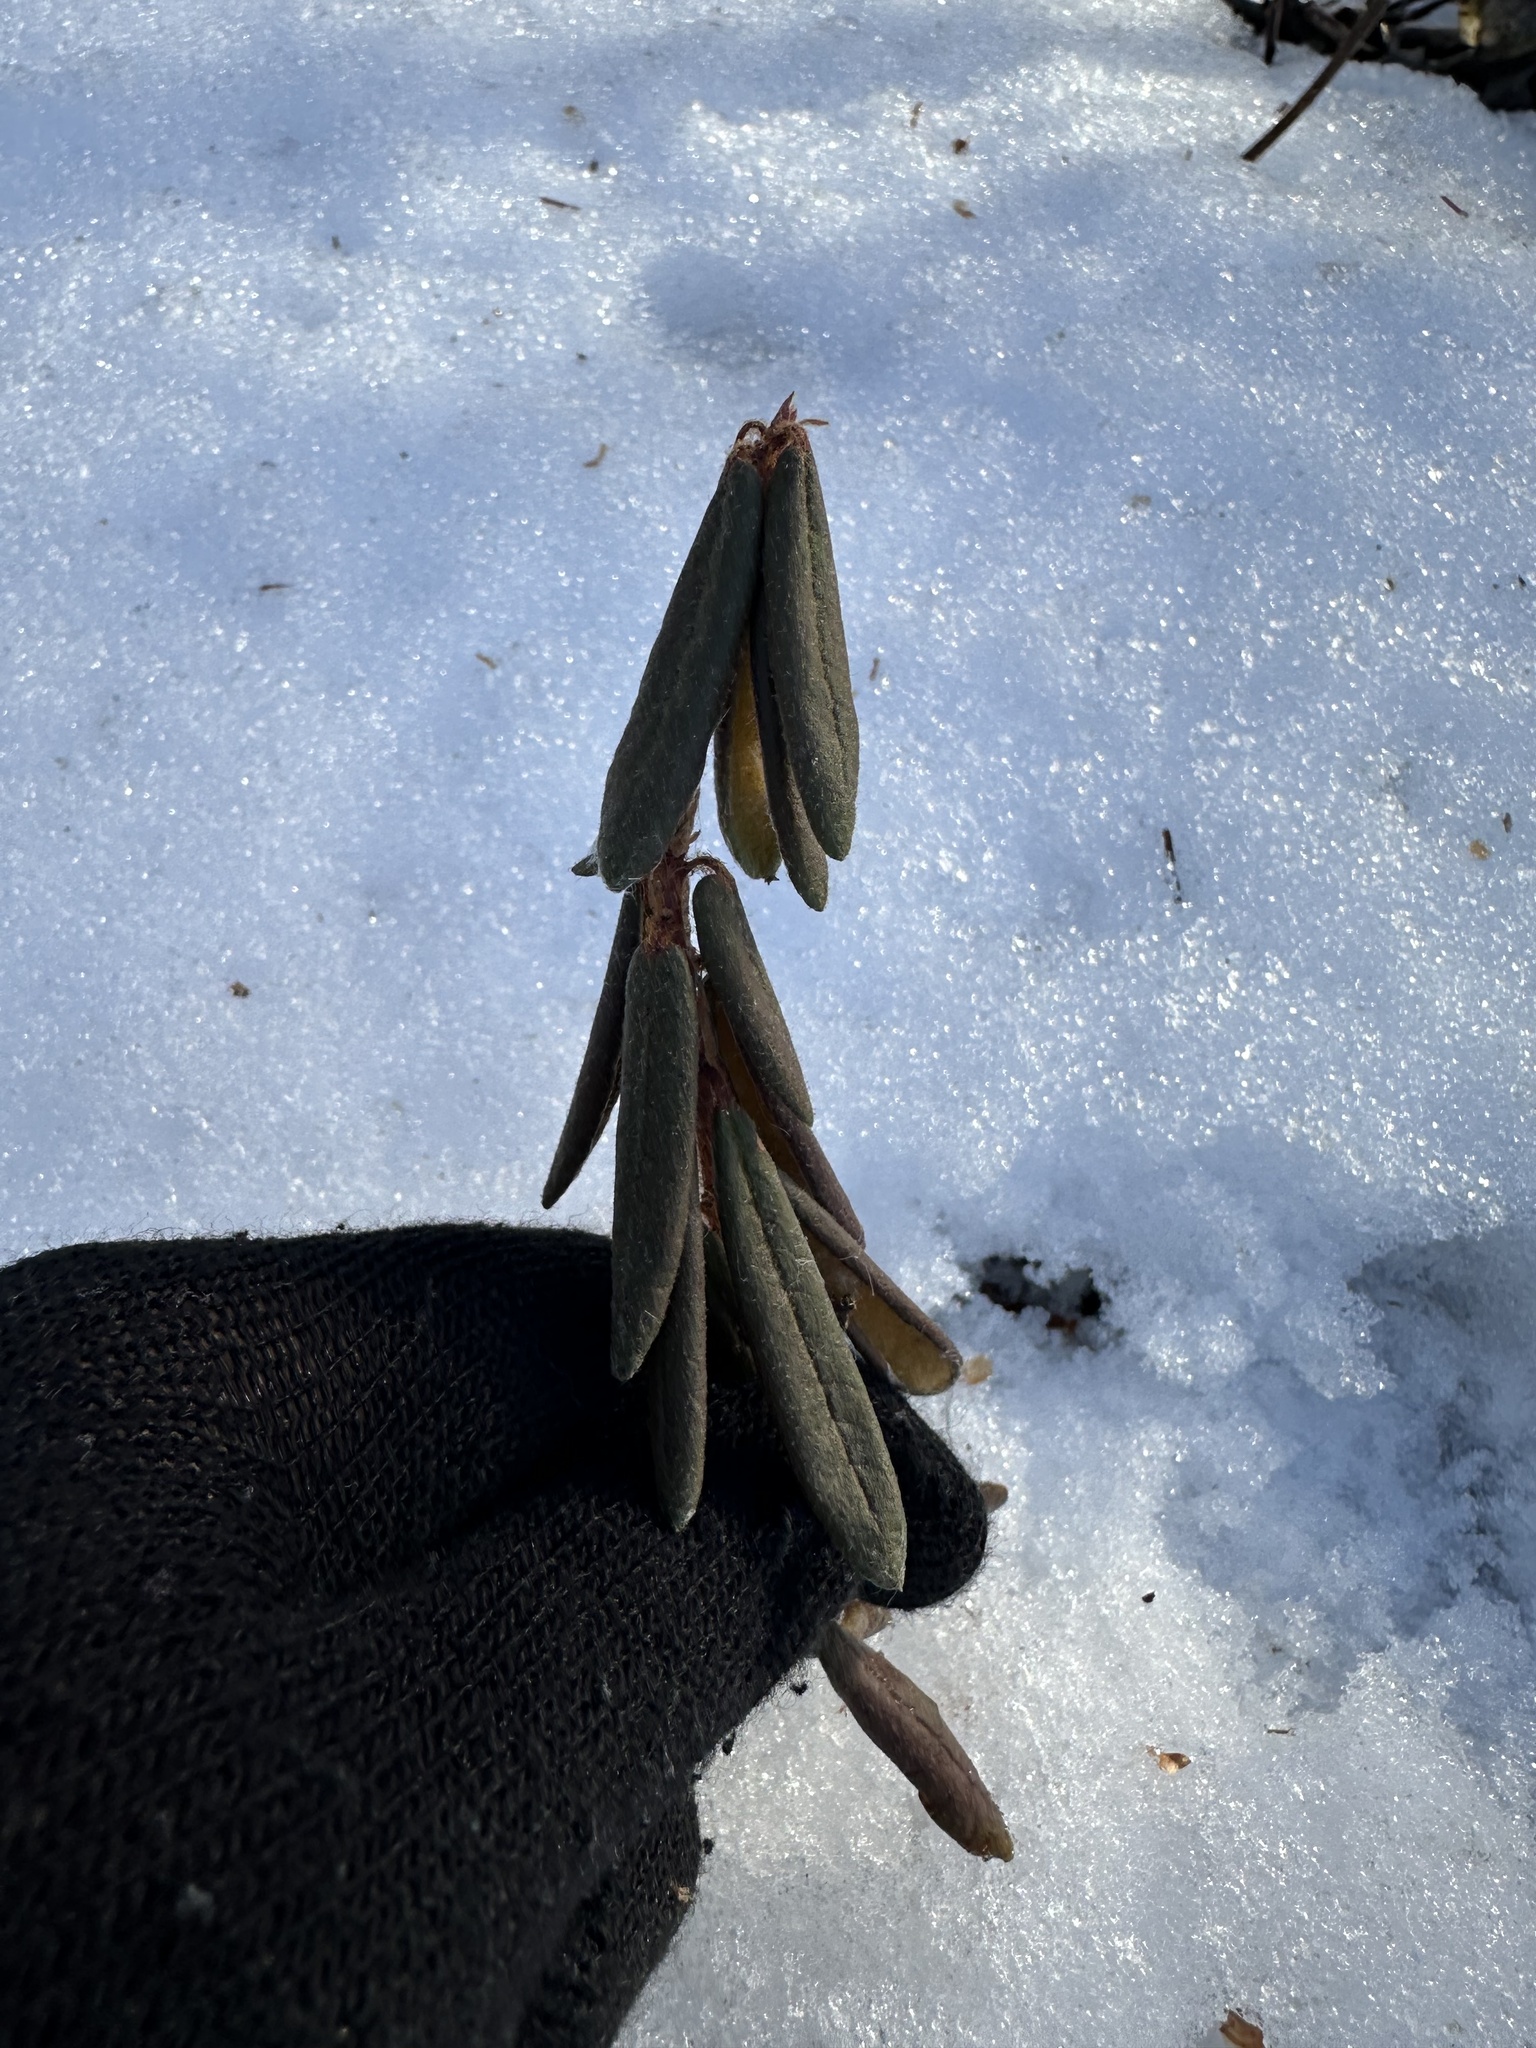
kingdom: Plantae
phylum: Tracheophyta
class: Magnoliopsida
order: Ericales
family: Ericaceae
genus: Rhododendron
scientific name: Rhododendron groenlandicum
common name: Bog labrador tea
